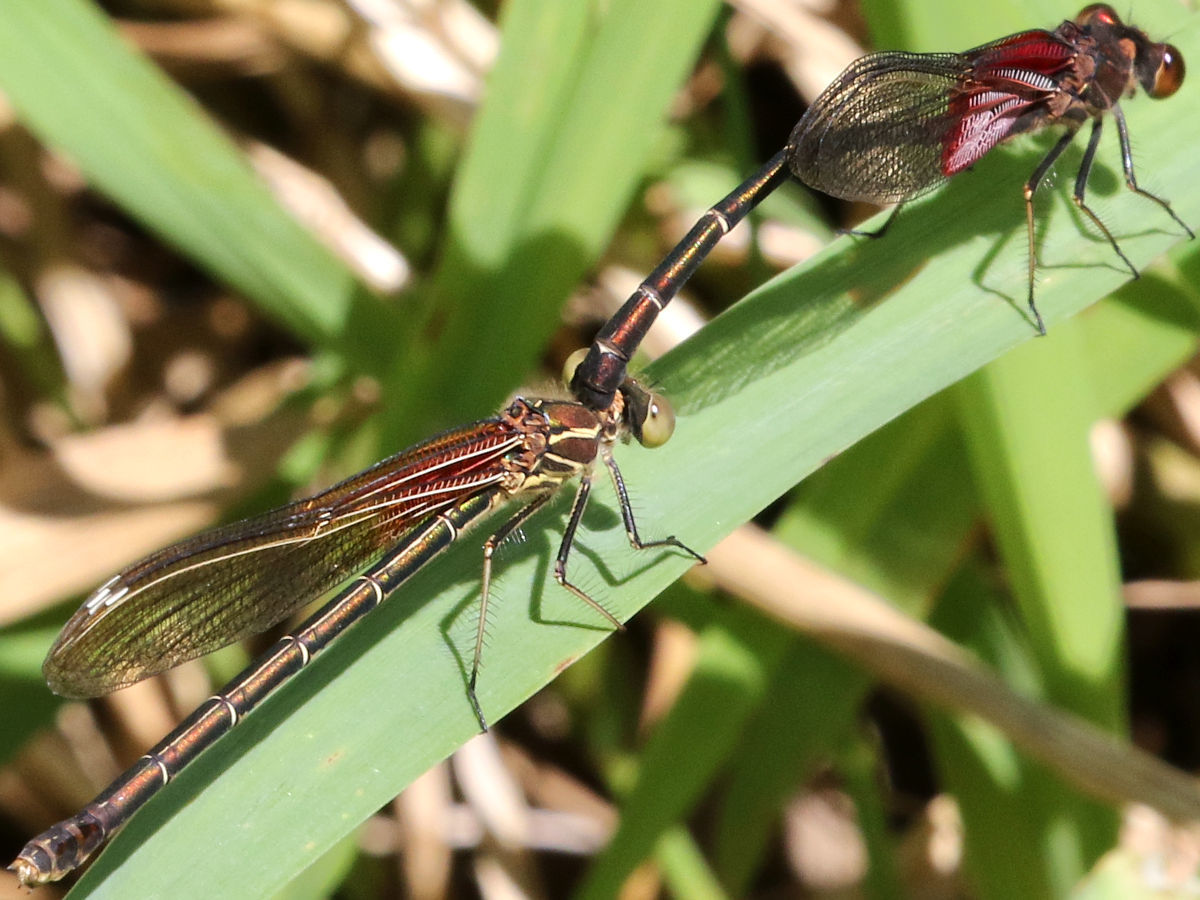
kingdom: Animalia
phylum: Arthropoda
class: Insecta
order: Odonata
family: Calopterygidae
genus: Hetaerina
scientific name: Hetaerina americana
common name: American rubyspot
